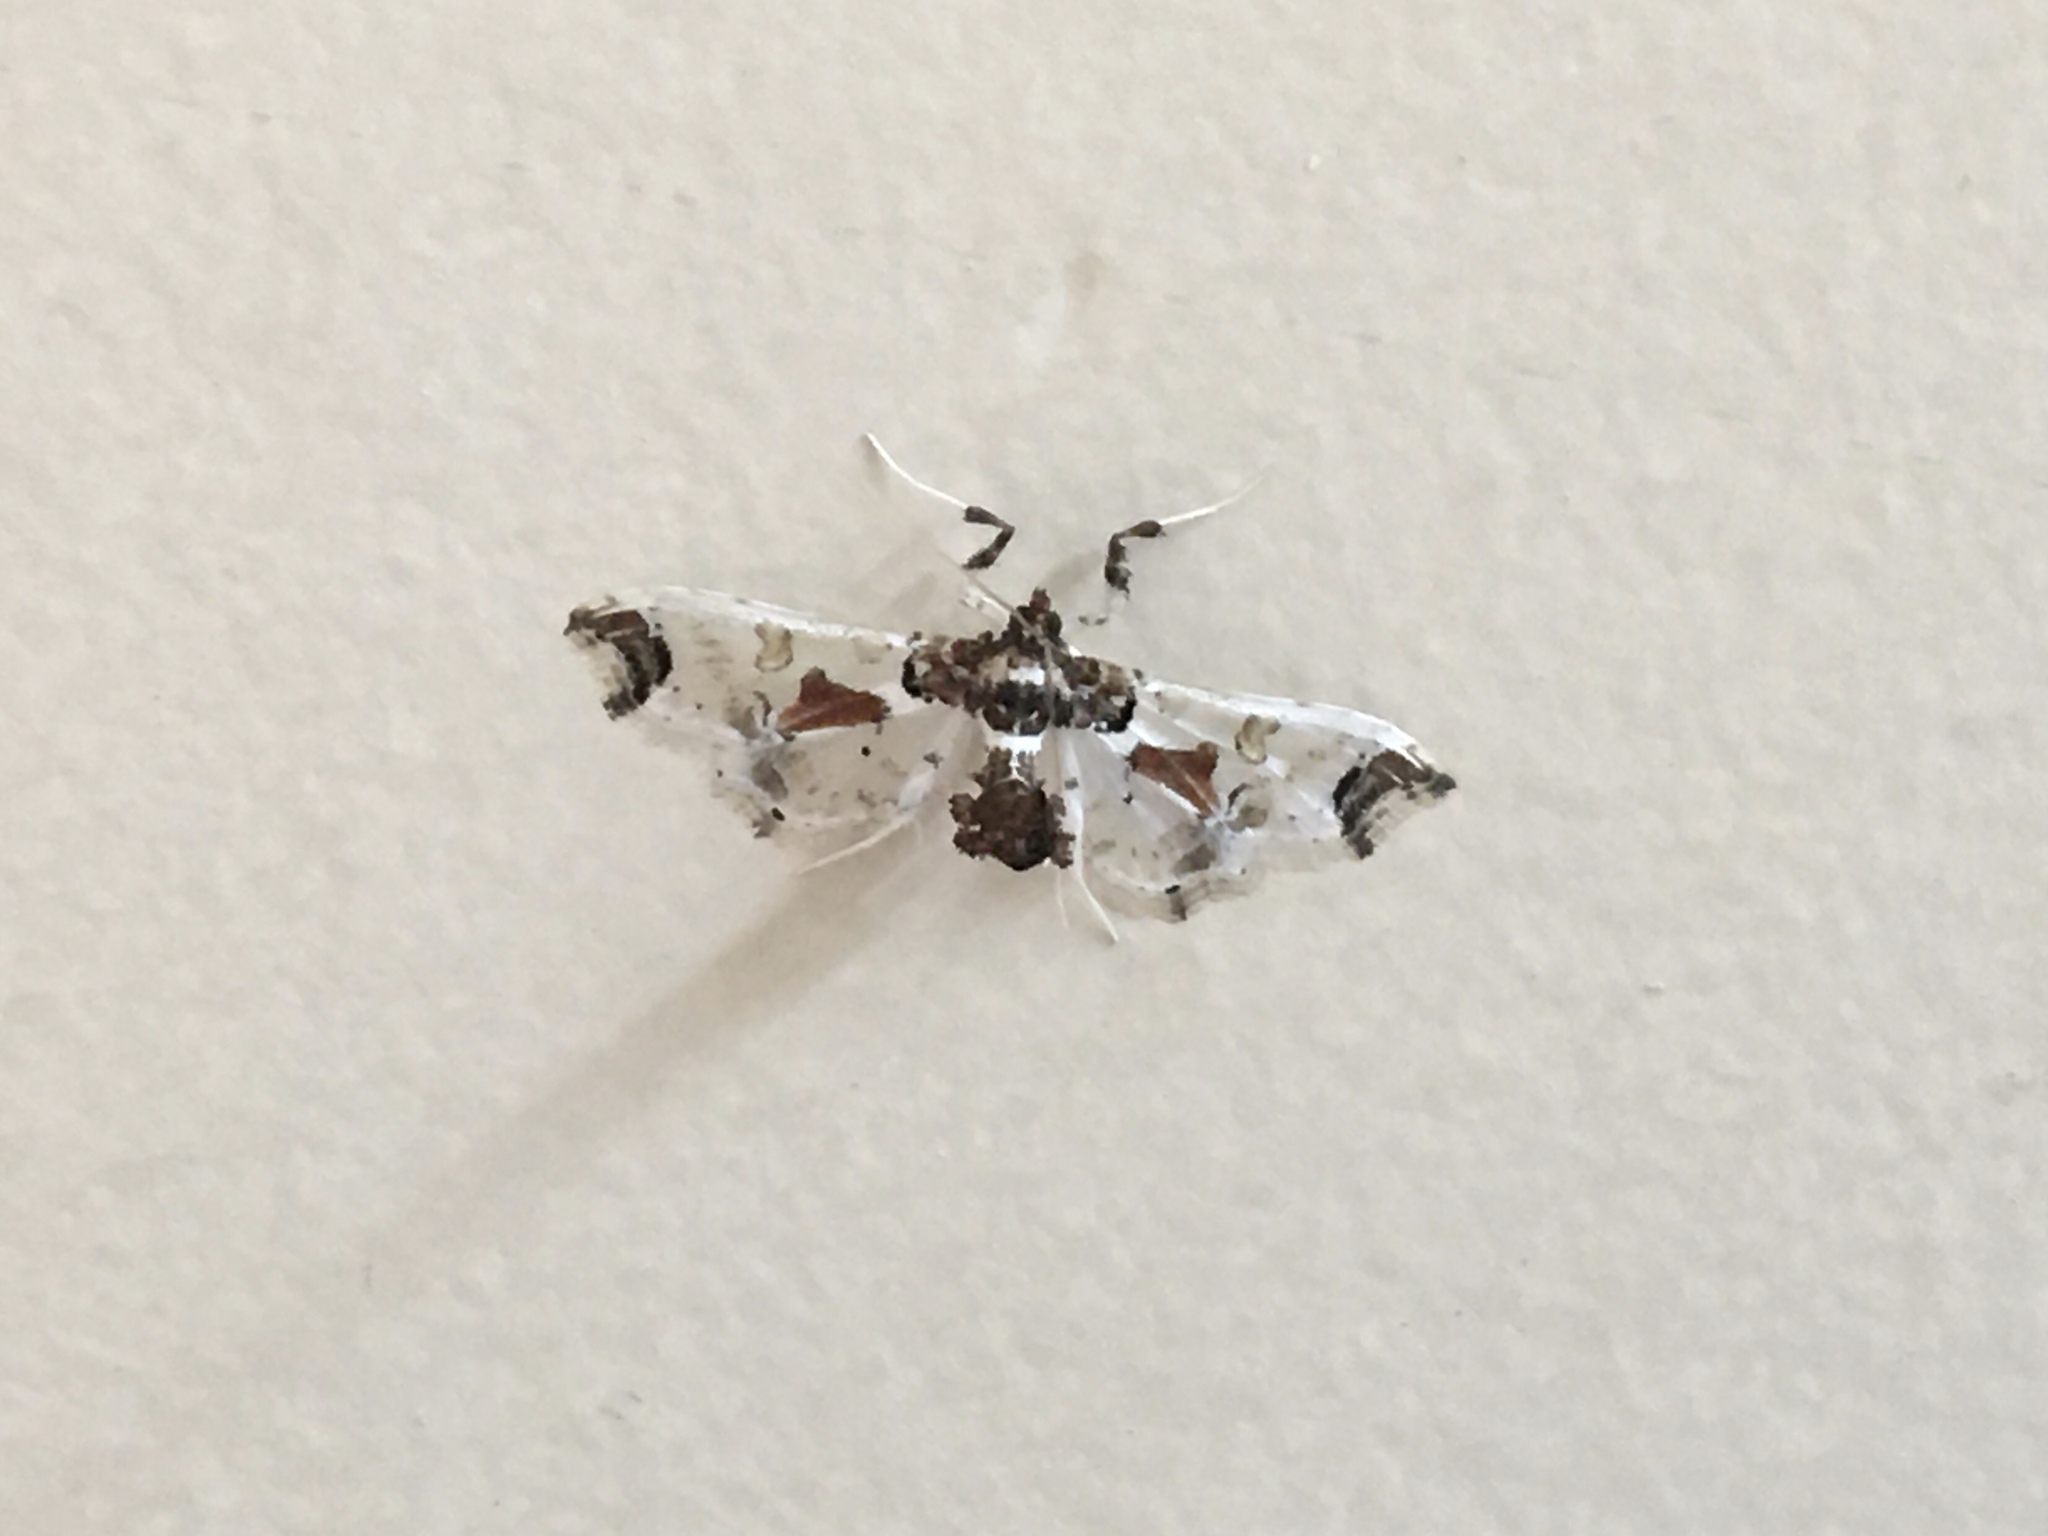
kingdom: Animalia
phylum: Arthropoda
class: Insecta
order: Lepidoptera
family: Crambidae
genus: Neoleucinodes
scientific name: Neoleucinodes elegantalis
